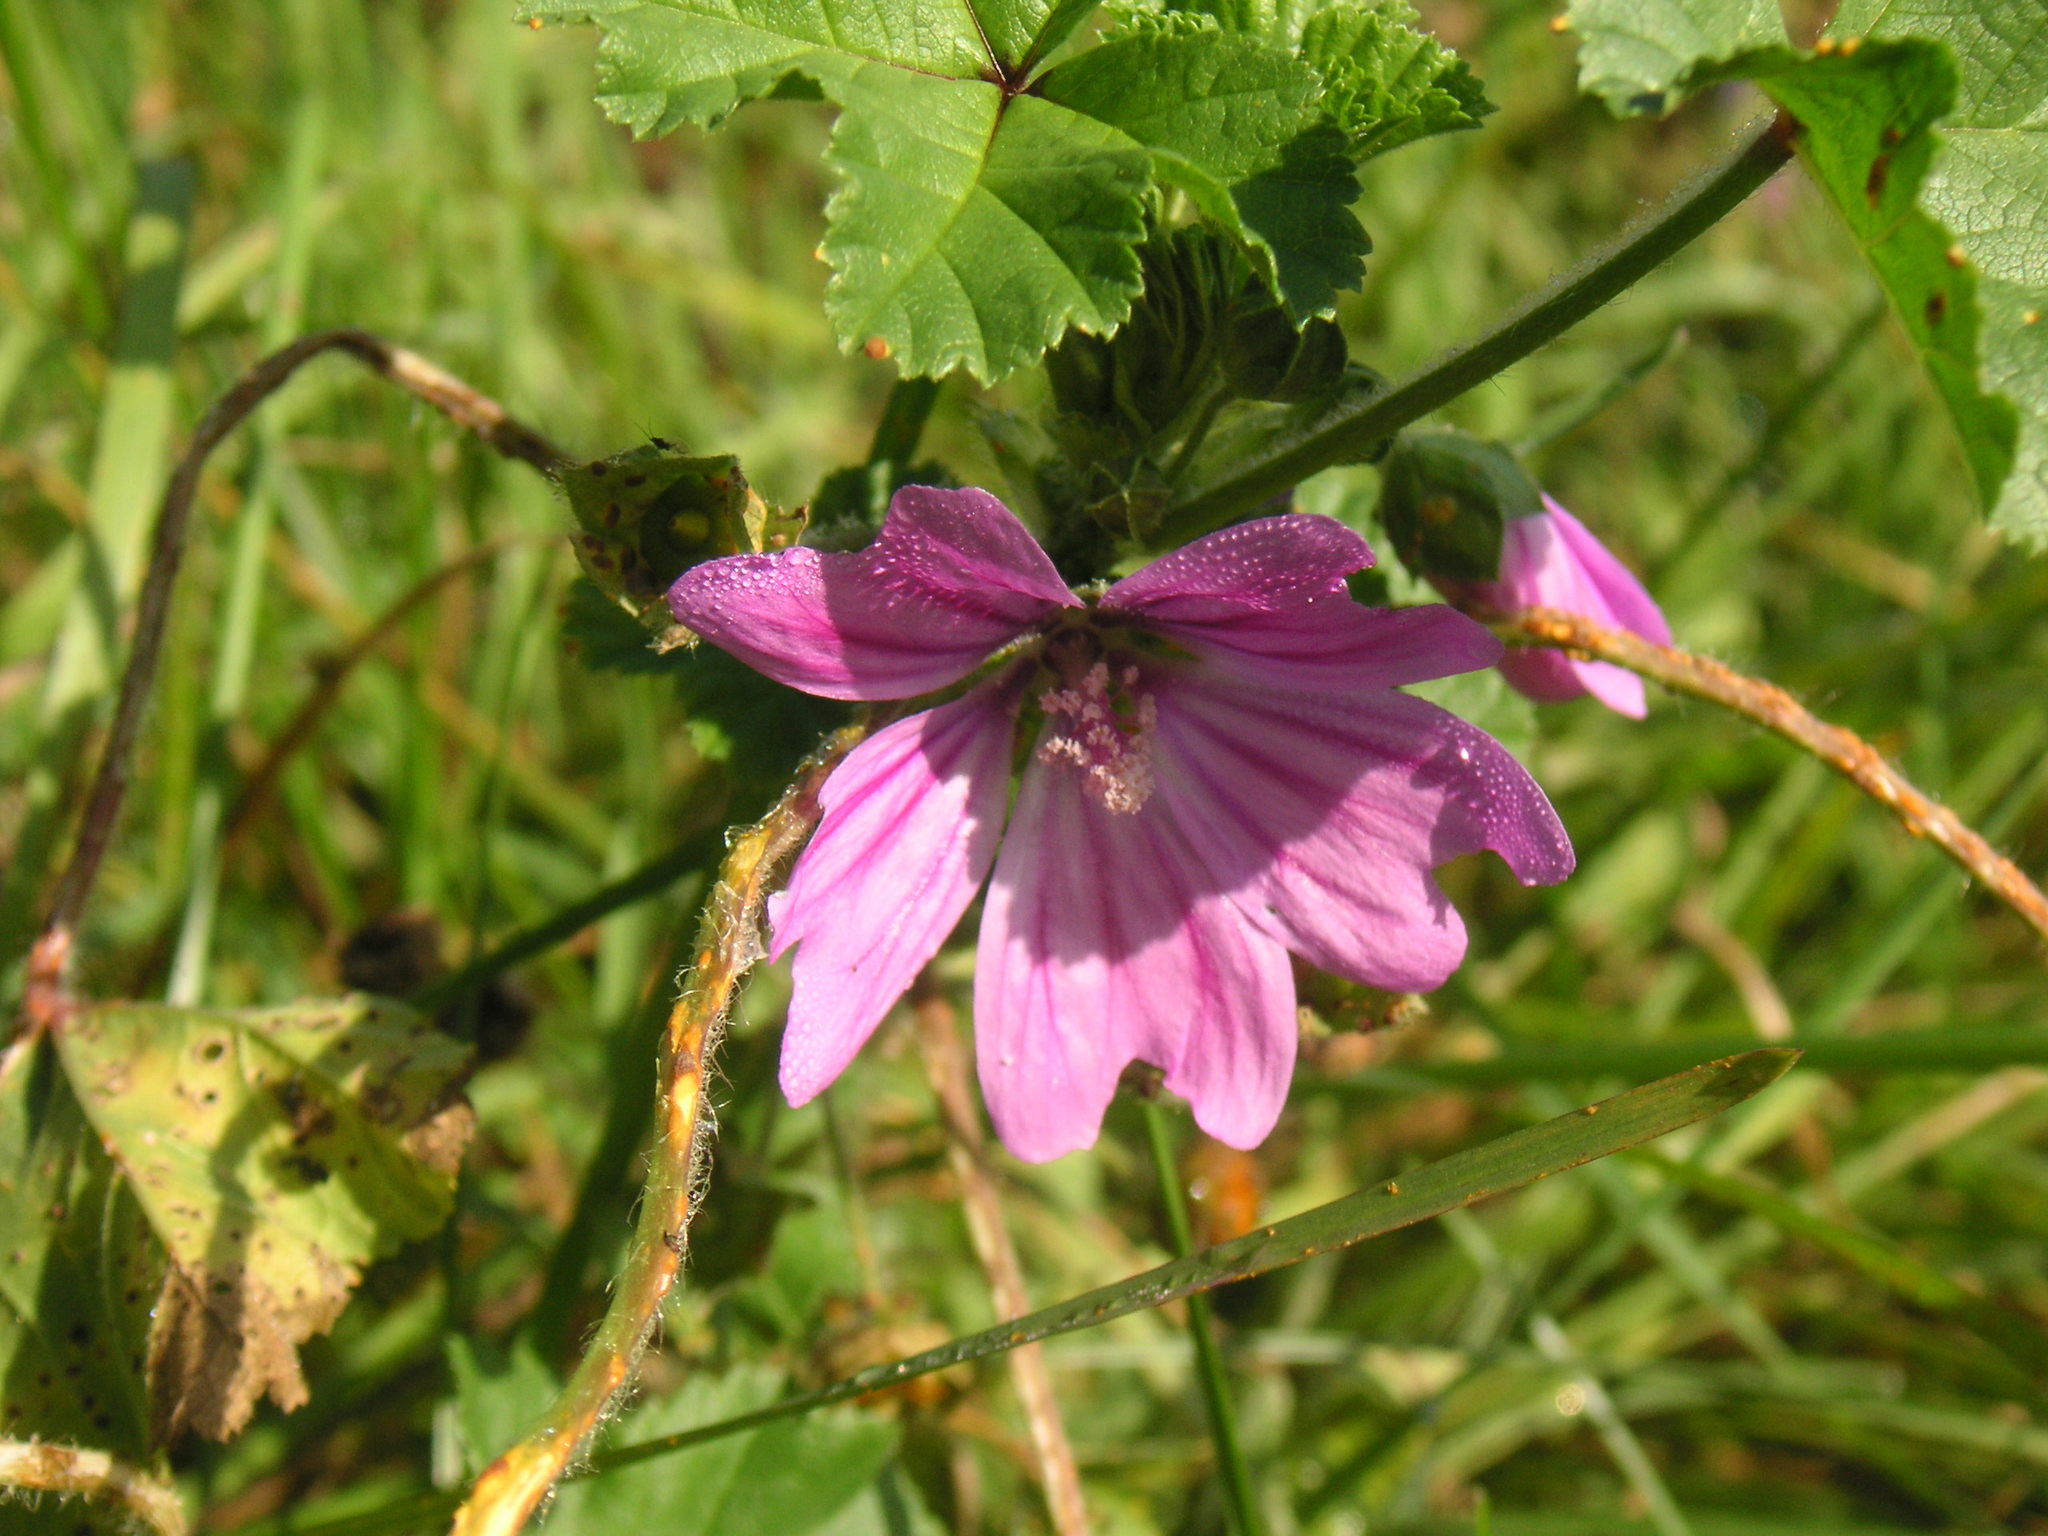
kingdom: Plantae
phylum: Tracheophyta
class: Magnoliopsida
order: Malvales
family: Malvaceae
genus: Malva
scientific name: Malva sylvestris
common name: Common mallow
